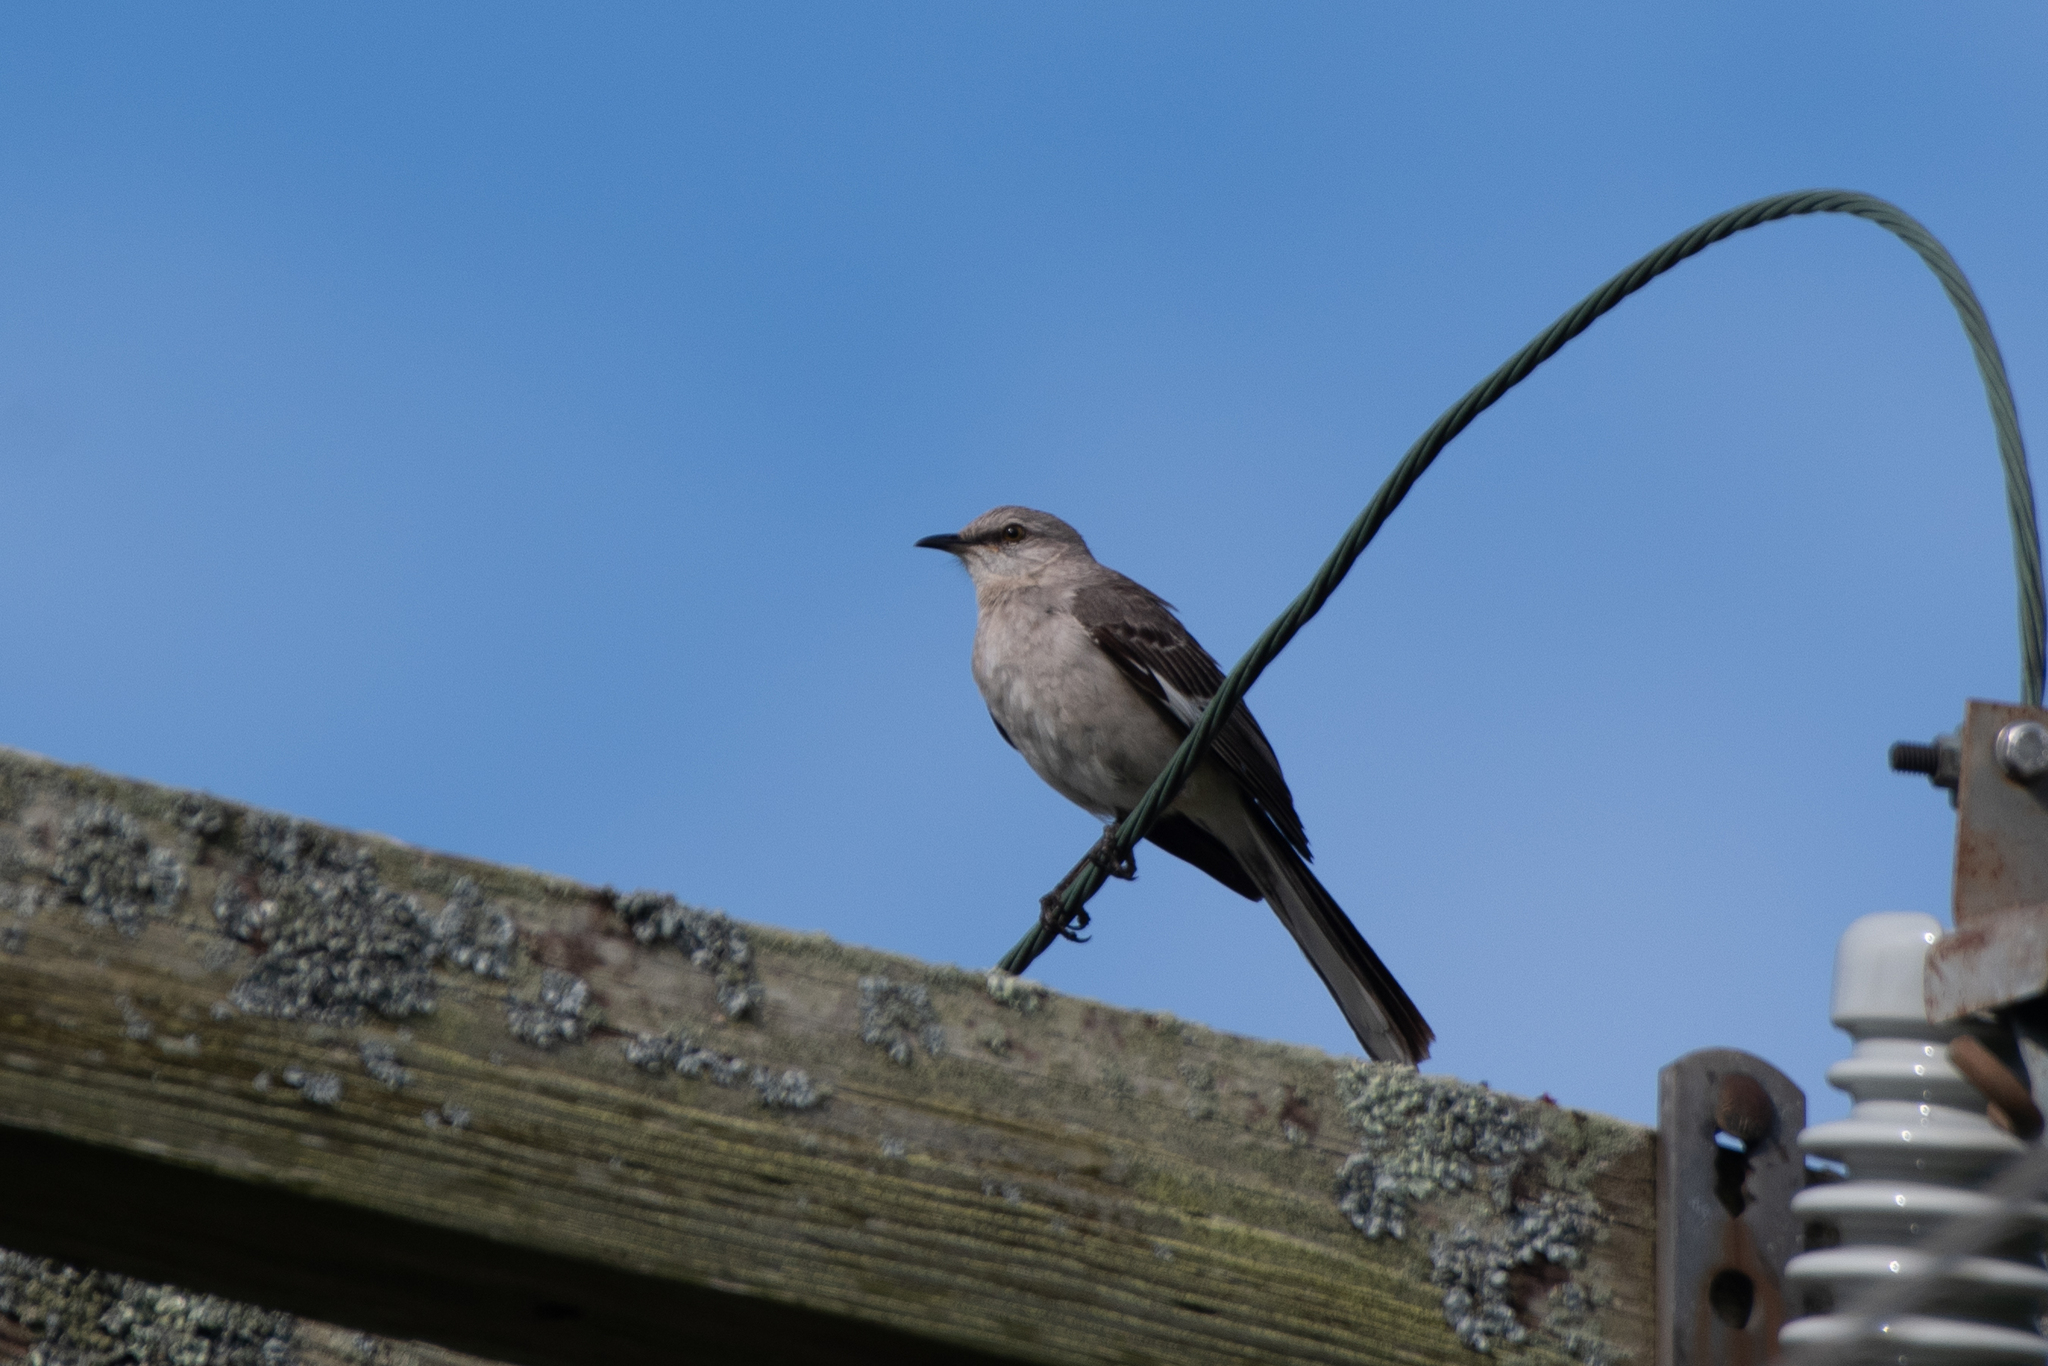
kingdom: Animalia
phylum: Chordata
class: Aves
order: Passeriformes
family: Mimidae
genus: Mimus
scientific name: Mimus polyglottos
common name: Northern mockingbird
